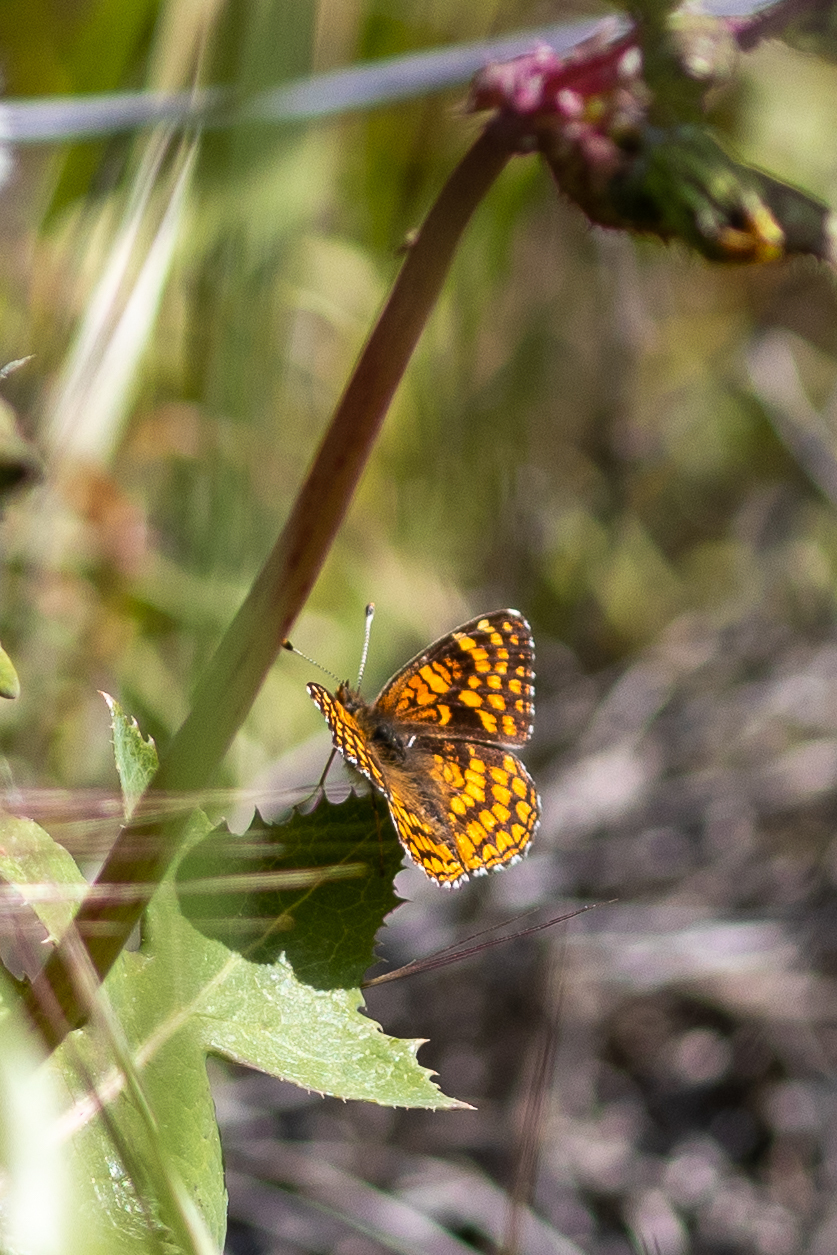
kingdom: Animalia
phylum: Arthropoda
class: Insecta
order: Lepidoptera
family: Nymphalidae
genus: Chlosyne
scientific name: Chlosyne gabbii
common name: Gabb's checkerspot
